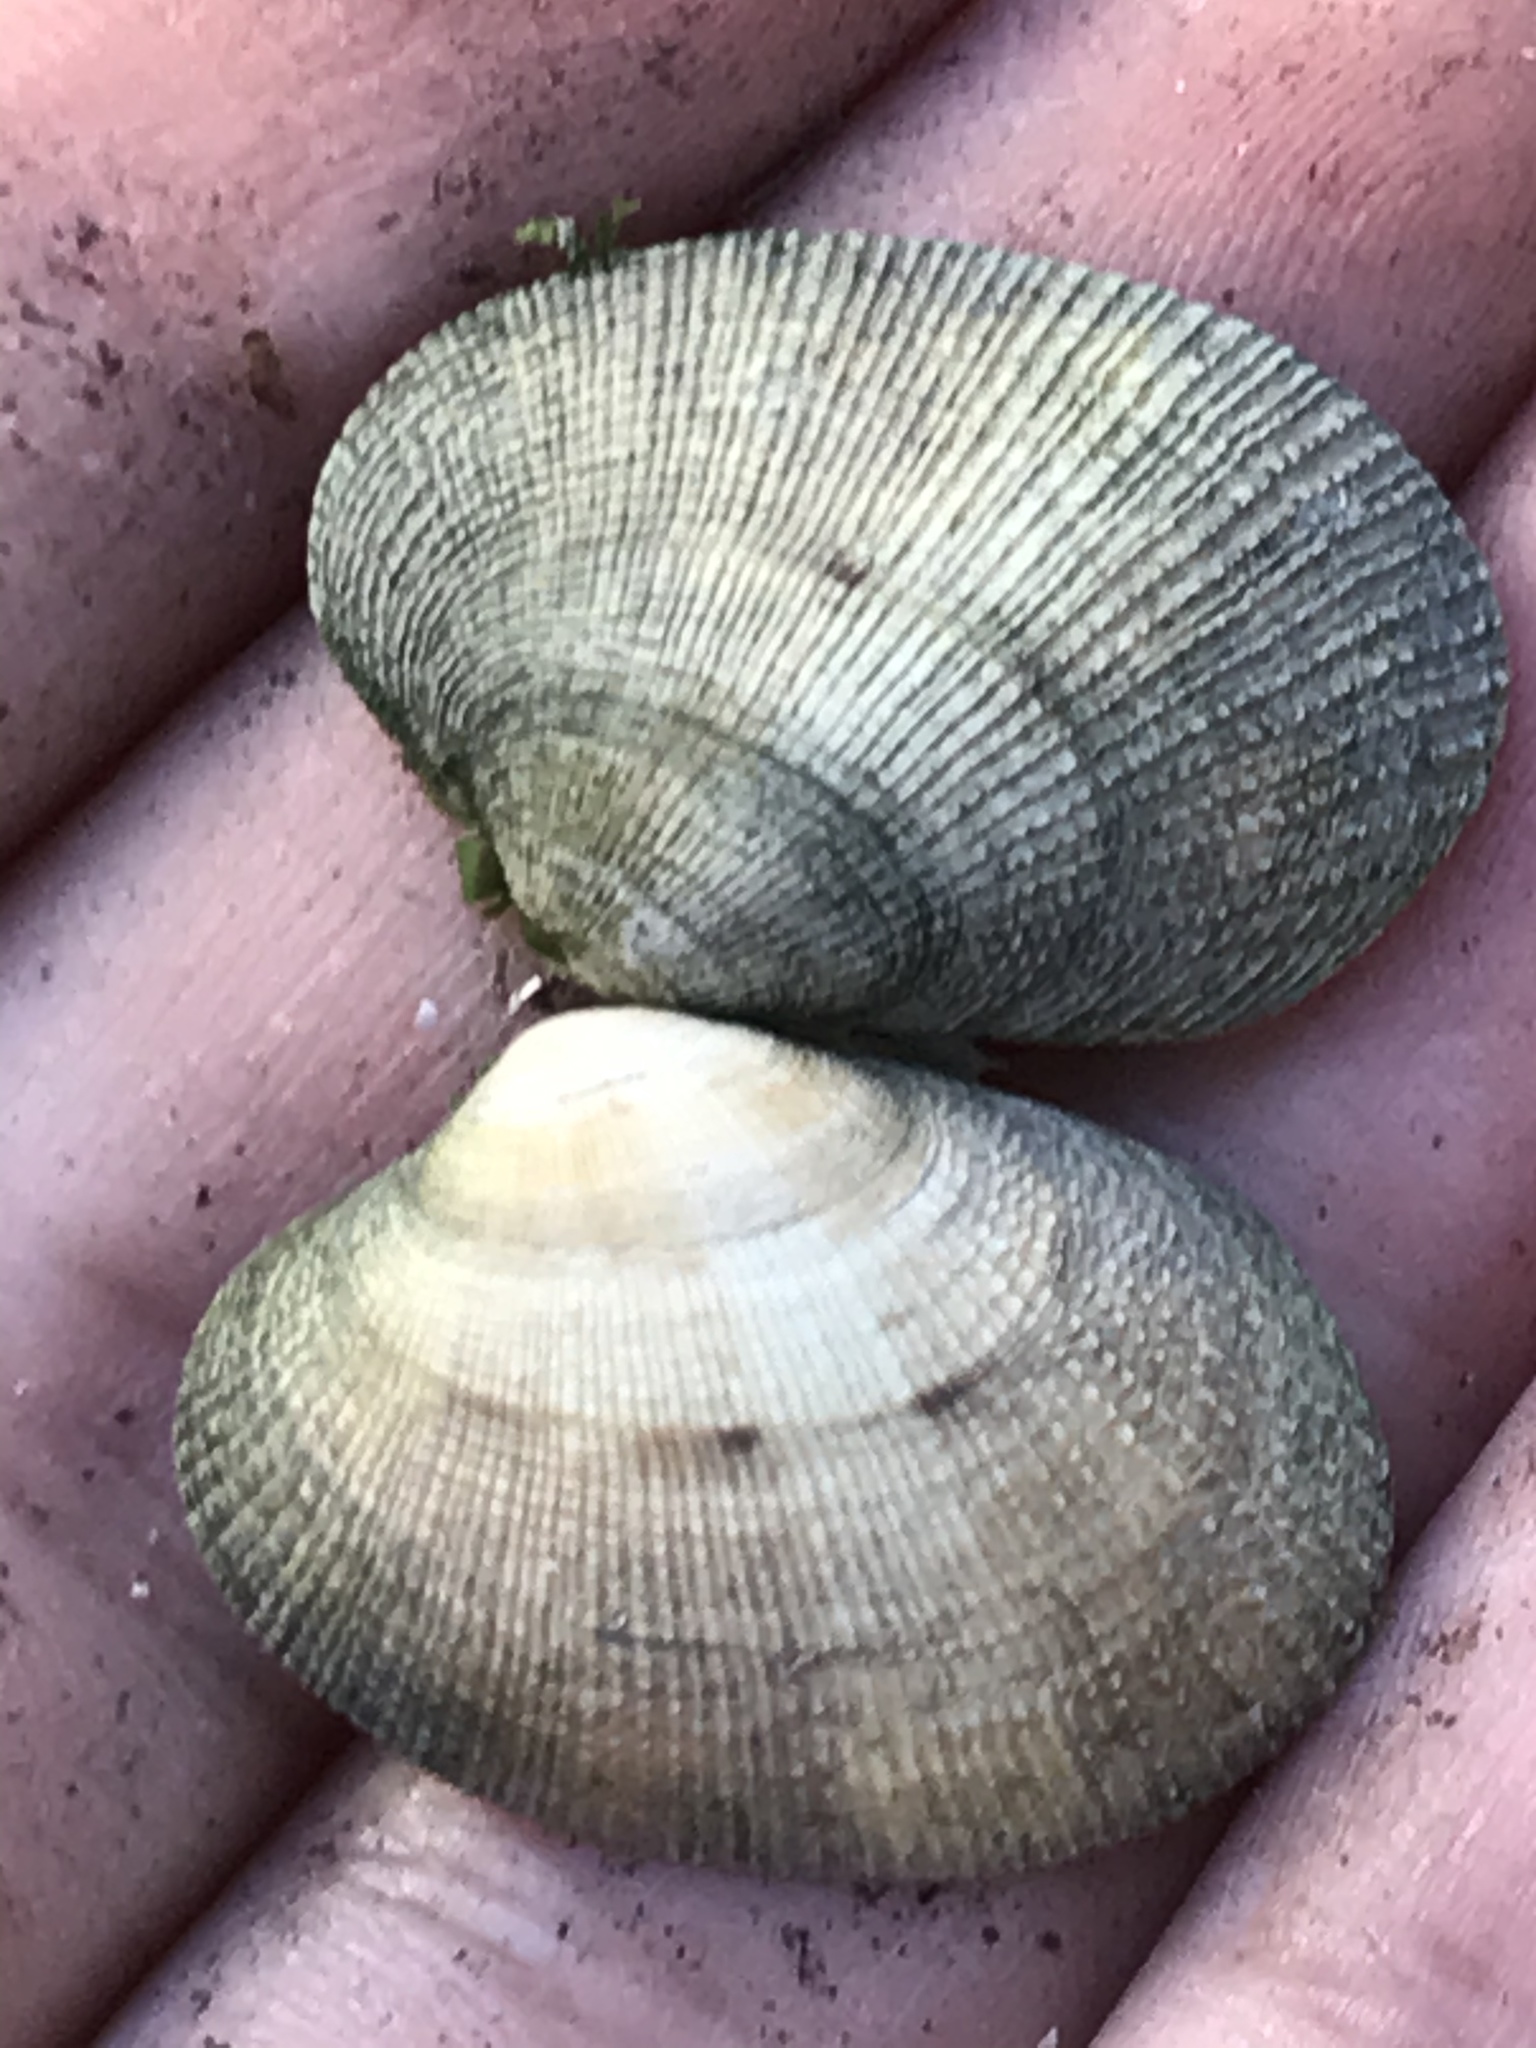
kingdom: Animalia
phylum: Mollusca
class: Bivalvia
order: Venerida
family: Veneridae
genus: Ruditapes
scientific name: Ruditapes philippinarum
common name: Manila clam
